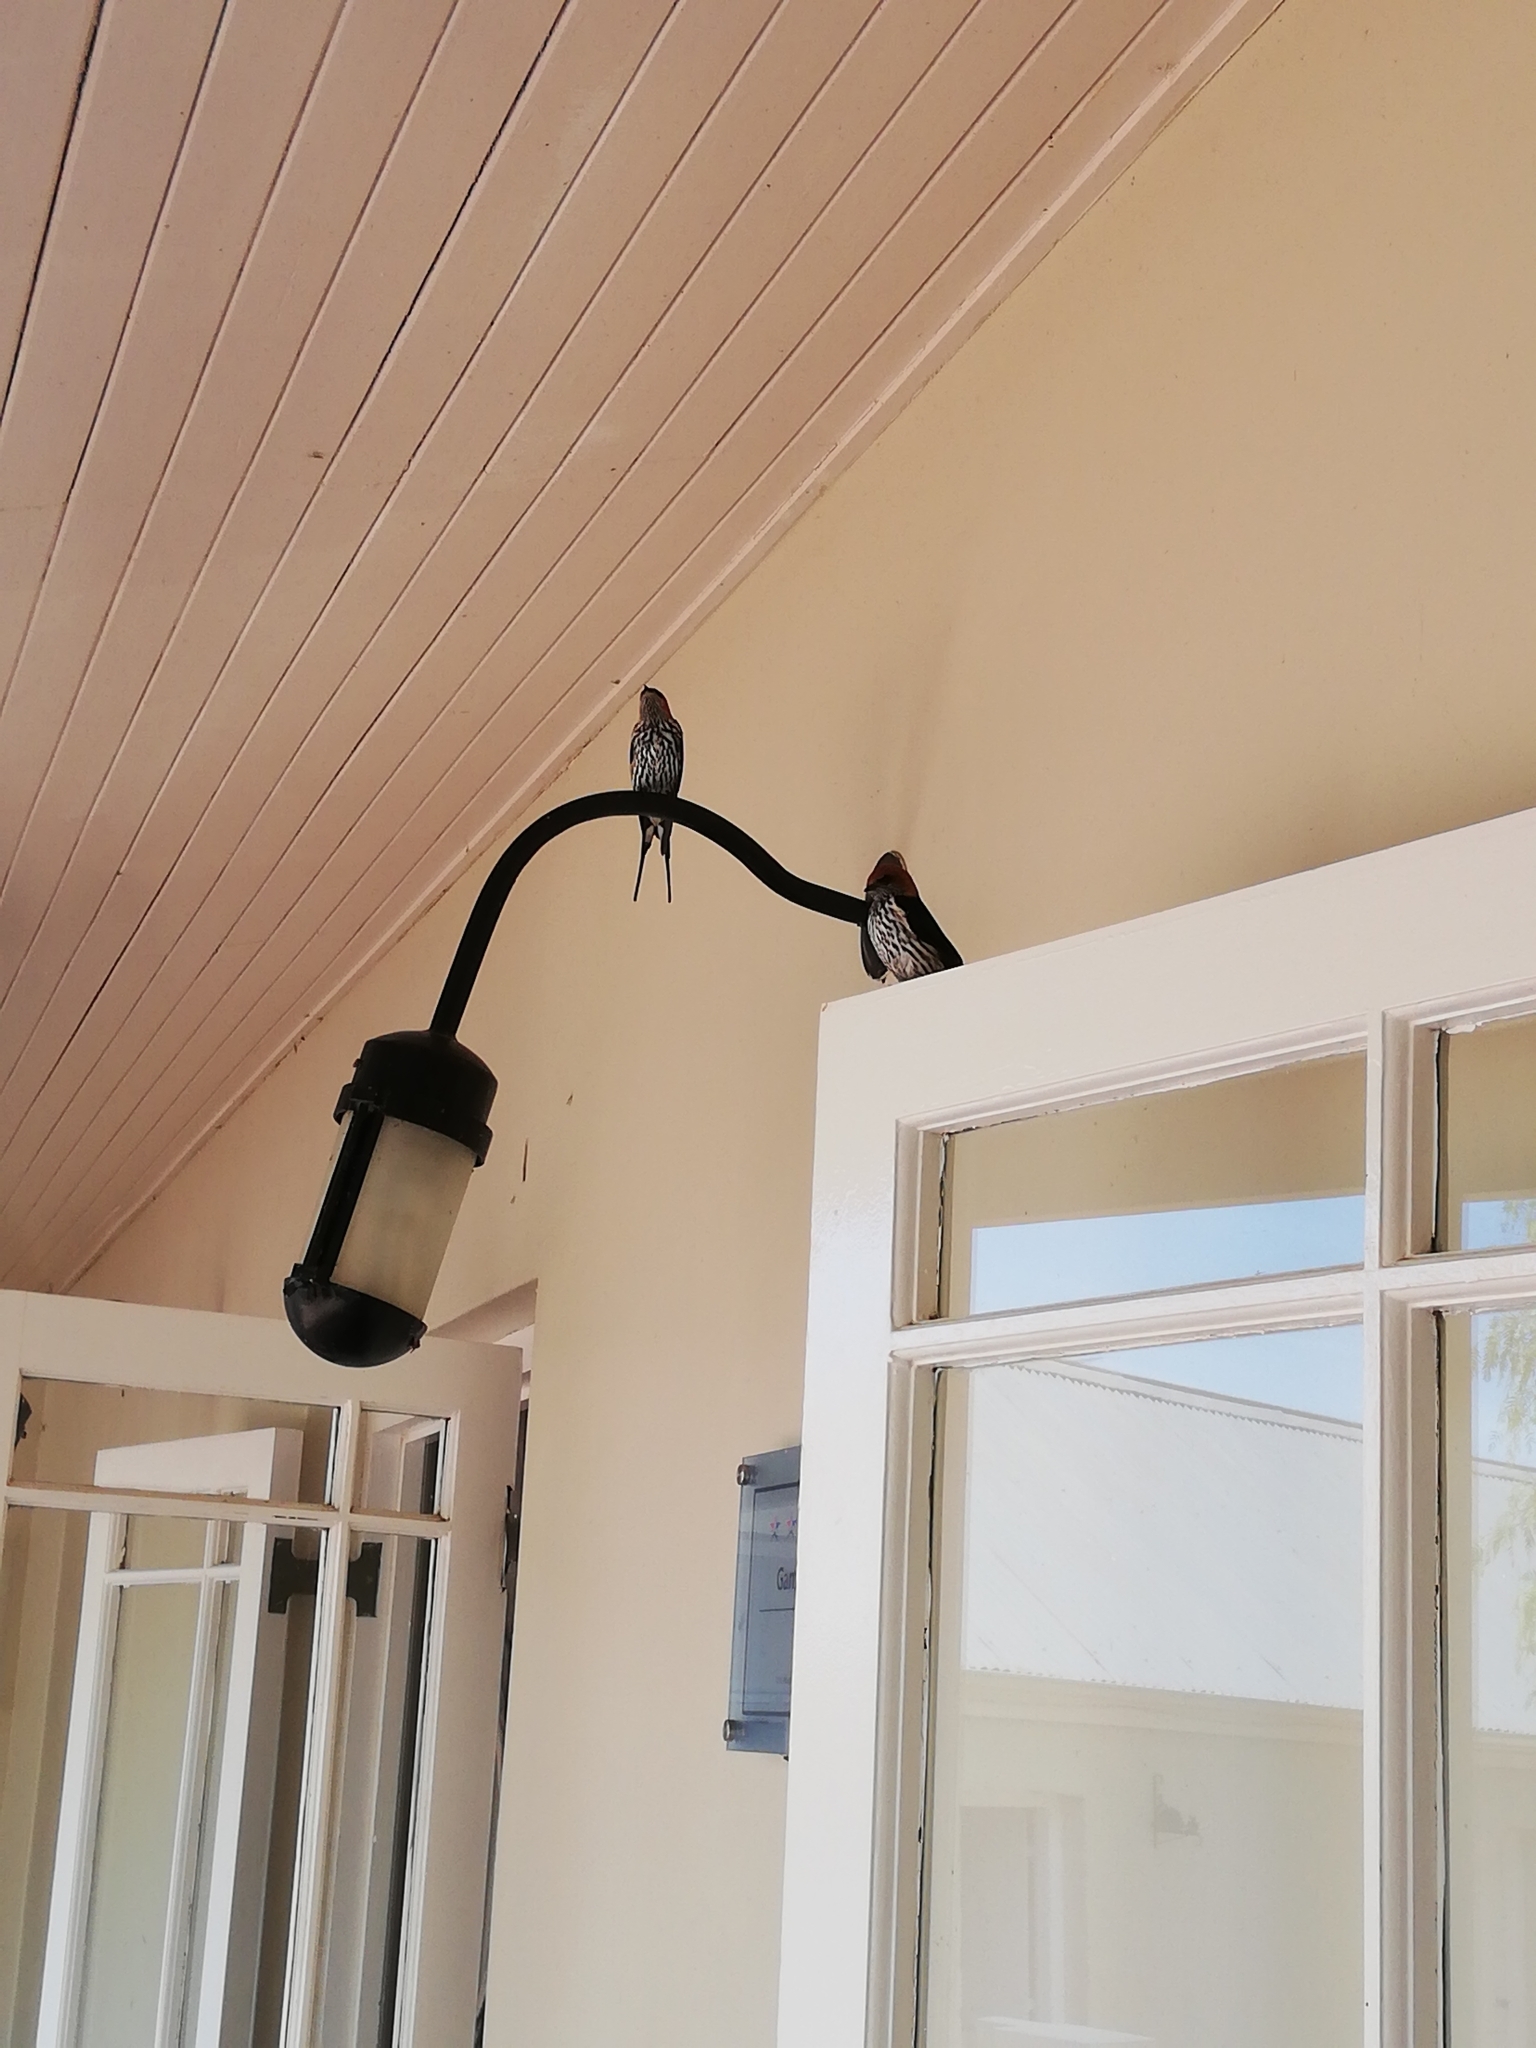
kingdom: Animalia
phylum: Chordata
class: Aves
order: Passeriformes
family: Hirundinidae
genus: Cecropis
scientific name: Cecropis abyssinica
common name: Lesser striped-swallow
